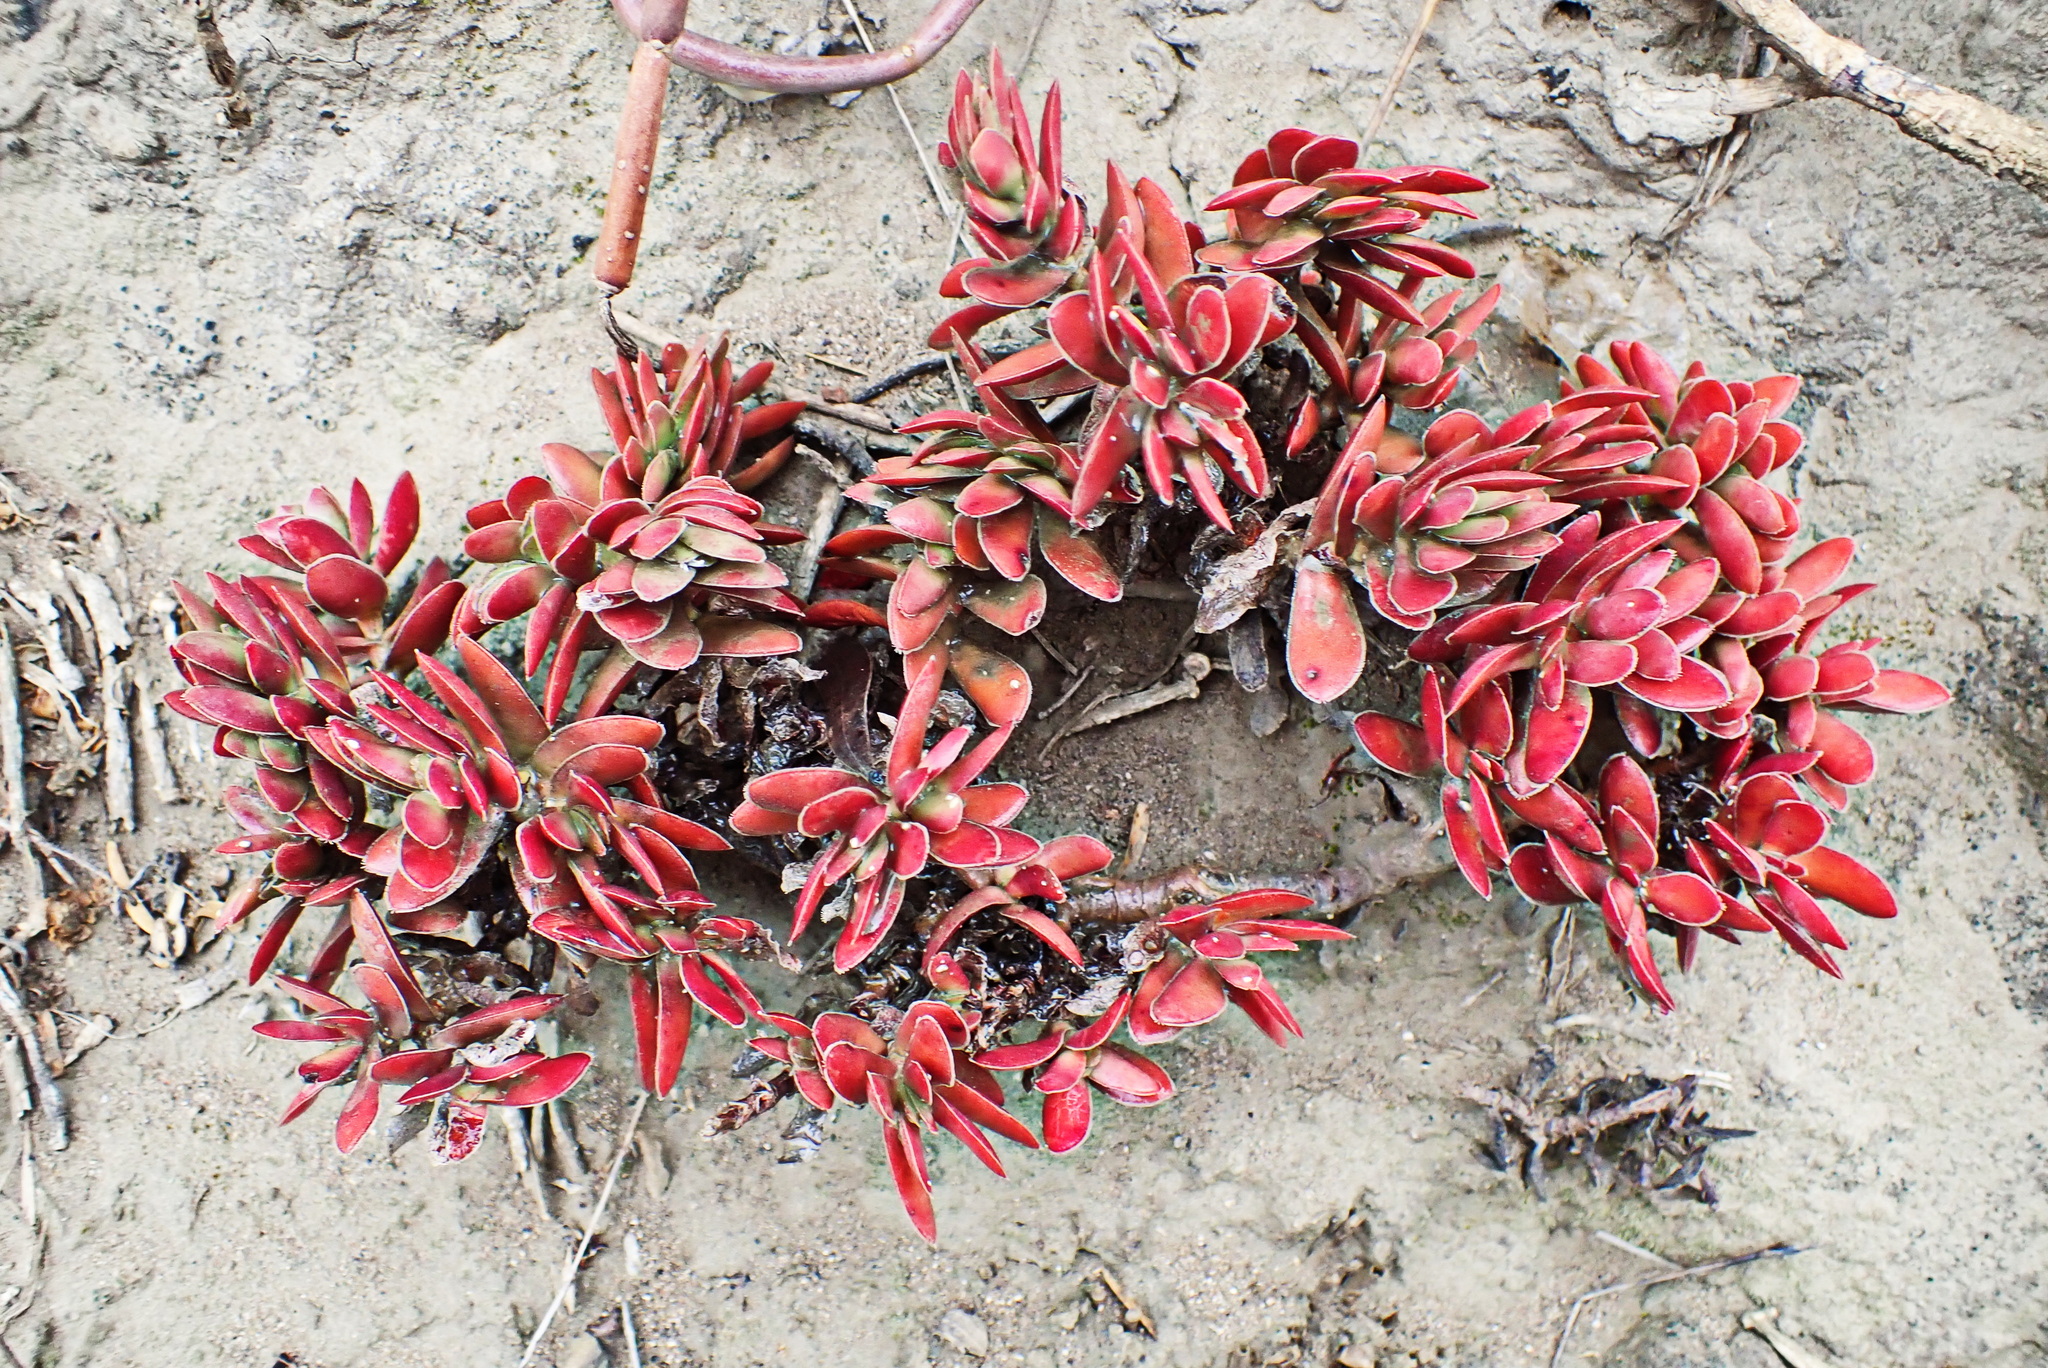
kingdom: Plantae
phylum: Tracheophyta
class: Magnoliopsida
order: Saxifragales
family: Crassulaceae
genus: Crassula
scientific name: Crassula ciliata
